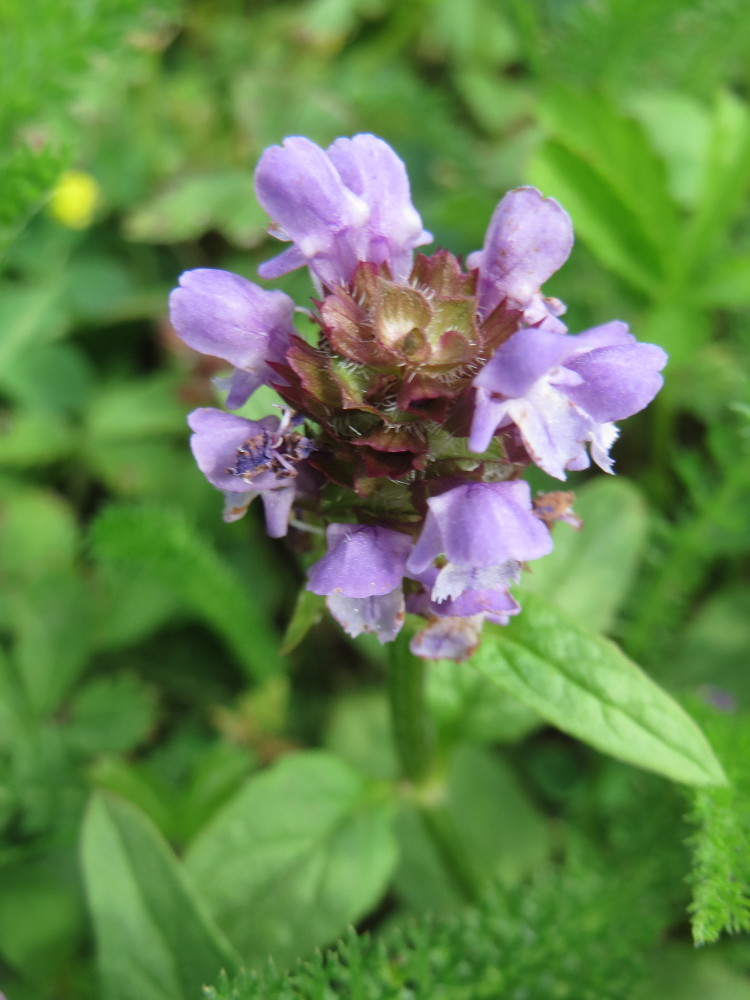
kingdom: Plantae
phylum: Tracheophyta
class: Magnoliopsida
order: Lamiales
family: Lamiaceae
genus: Prunella
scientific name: Prunella vulgaris
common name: Heal-all
